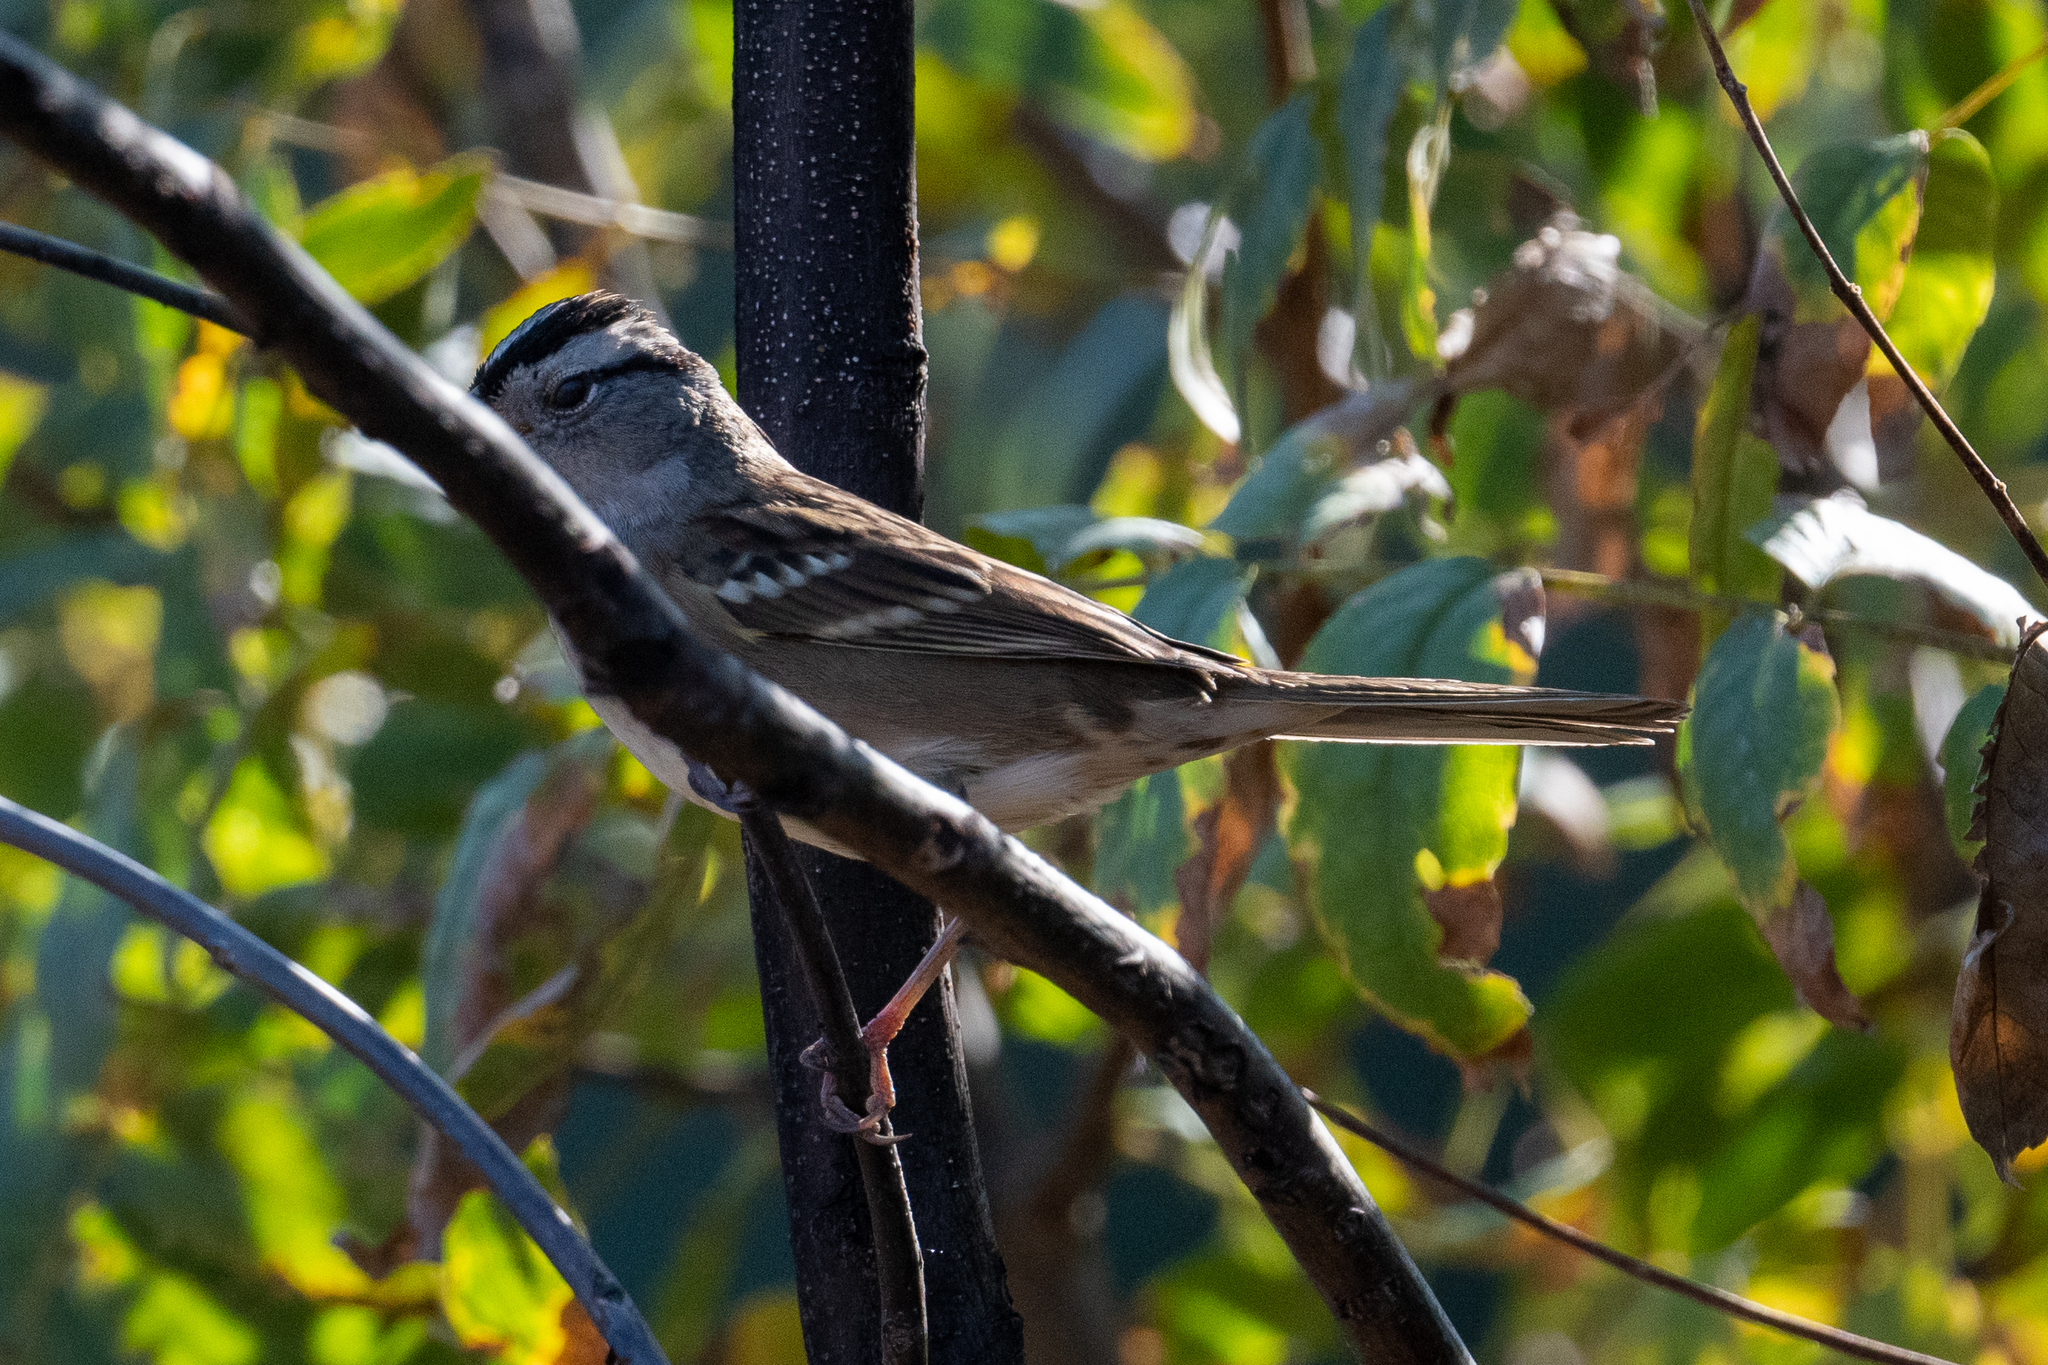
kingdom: Animalia
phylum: Chordata
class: Aves
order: Passeriformes
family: Passerellidae
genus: Zonotrichia
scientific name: Zonotrichia leucophrys
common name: White-crowned sparrow
